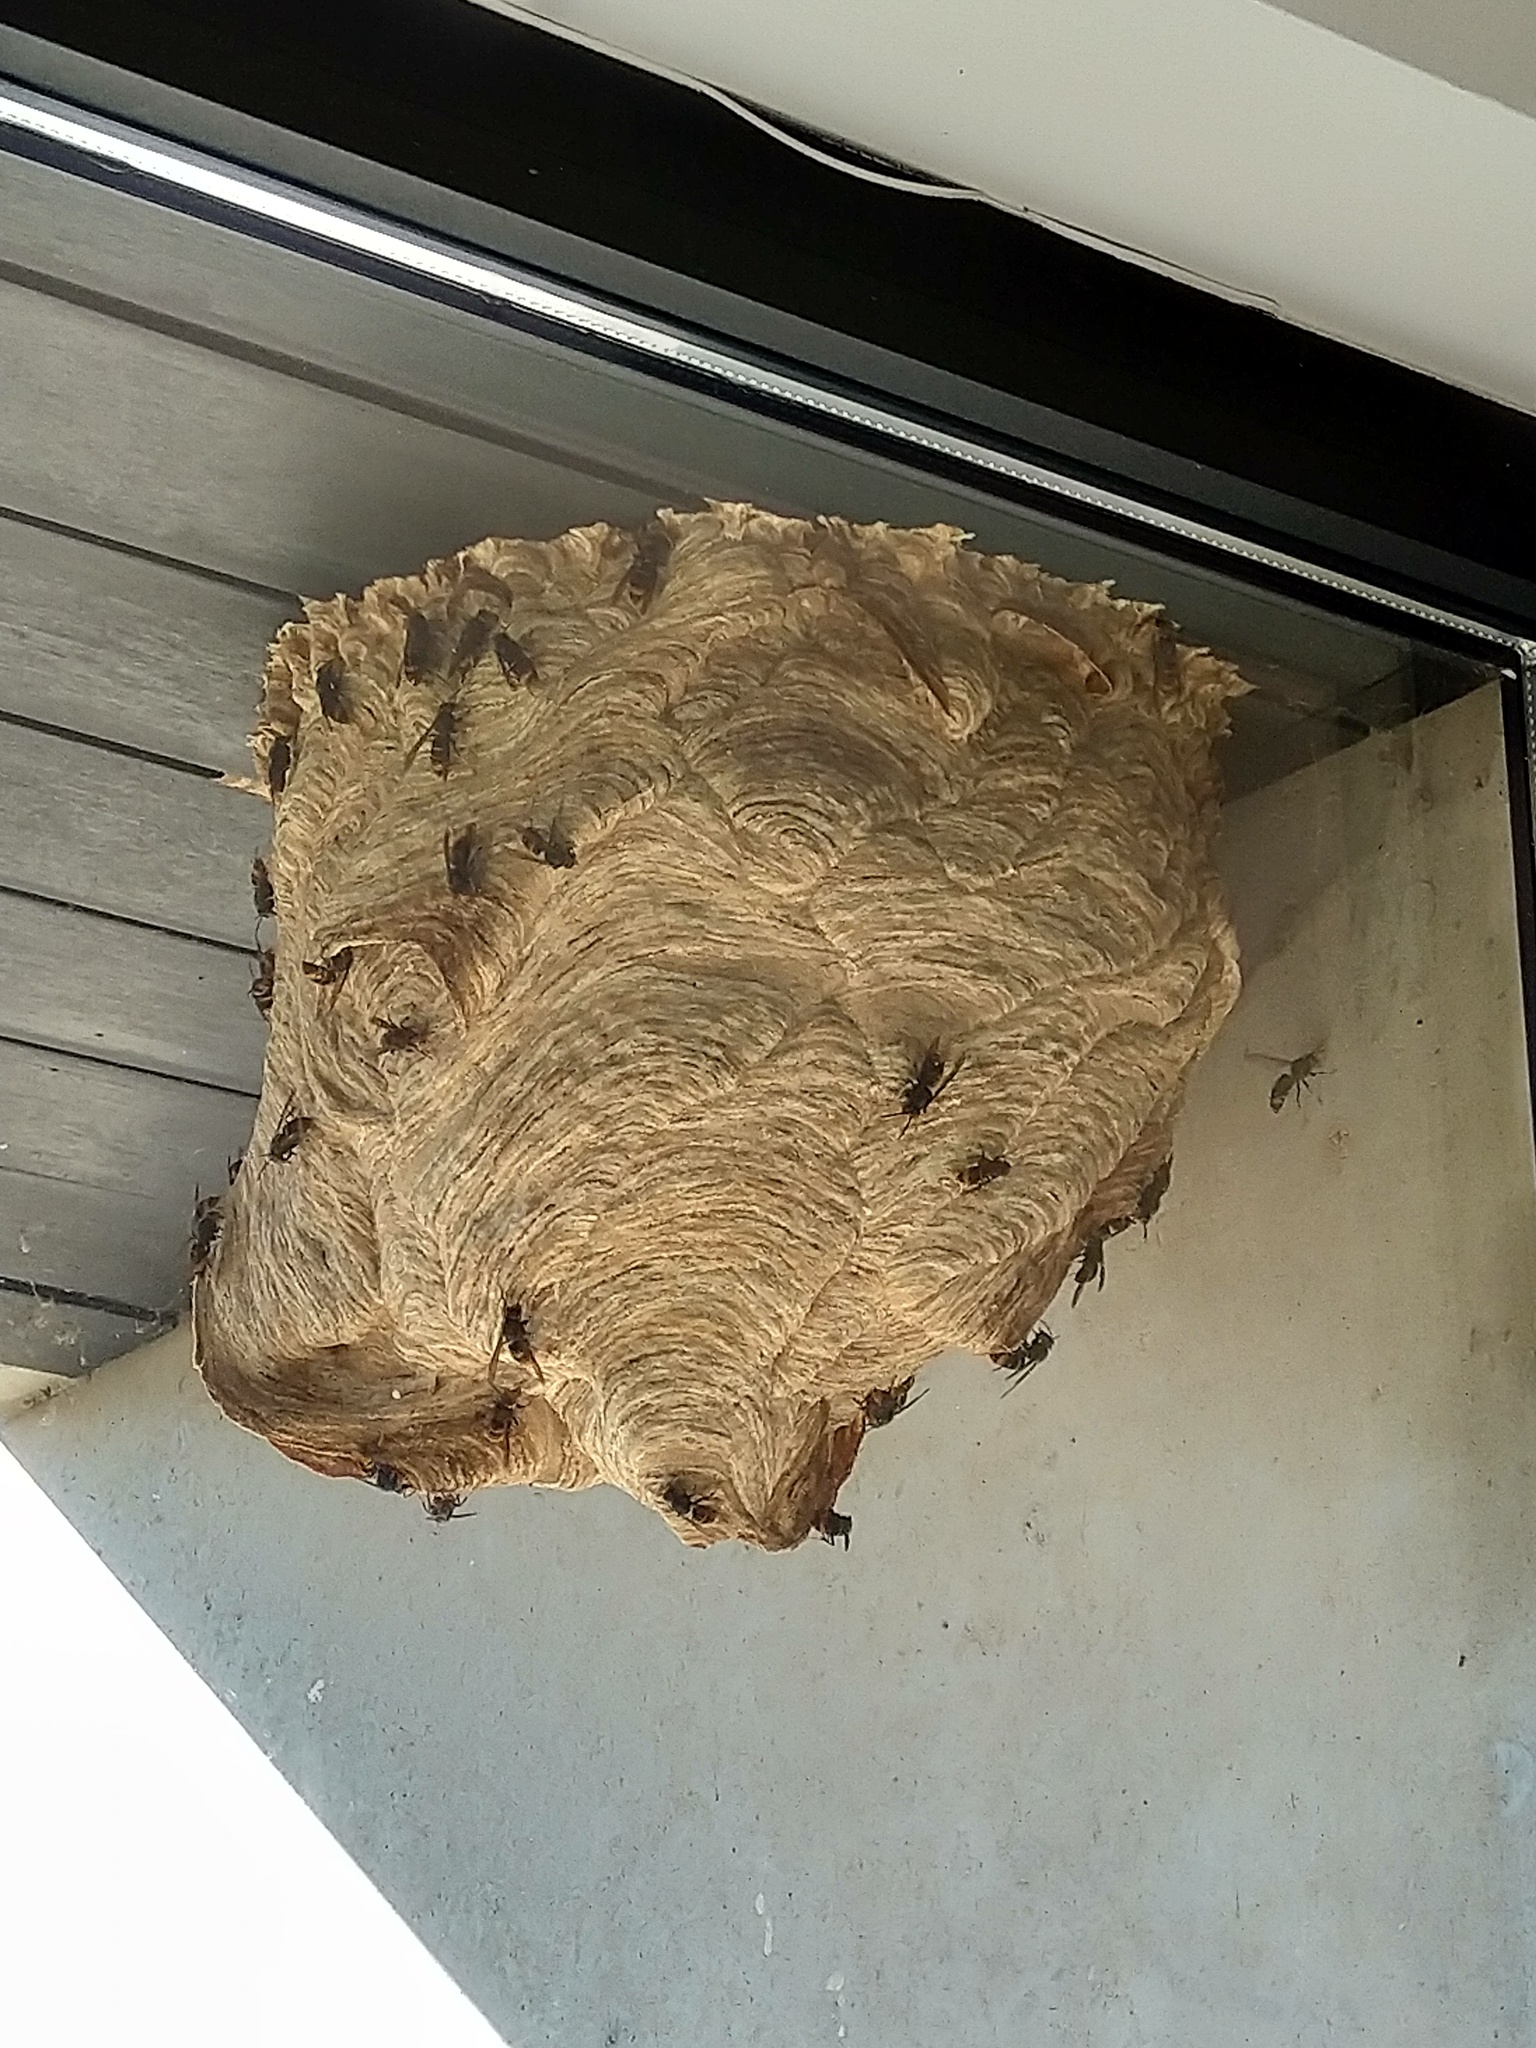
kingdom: Animalia
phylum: Arthropoda
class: Insecta
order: Hymenoptera
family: Vespidae
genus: Vespa
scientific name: Vespa velutina
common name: Asian hornet
